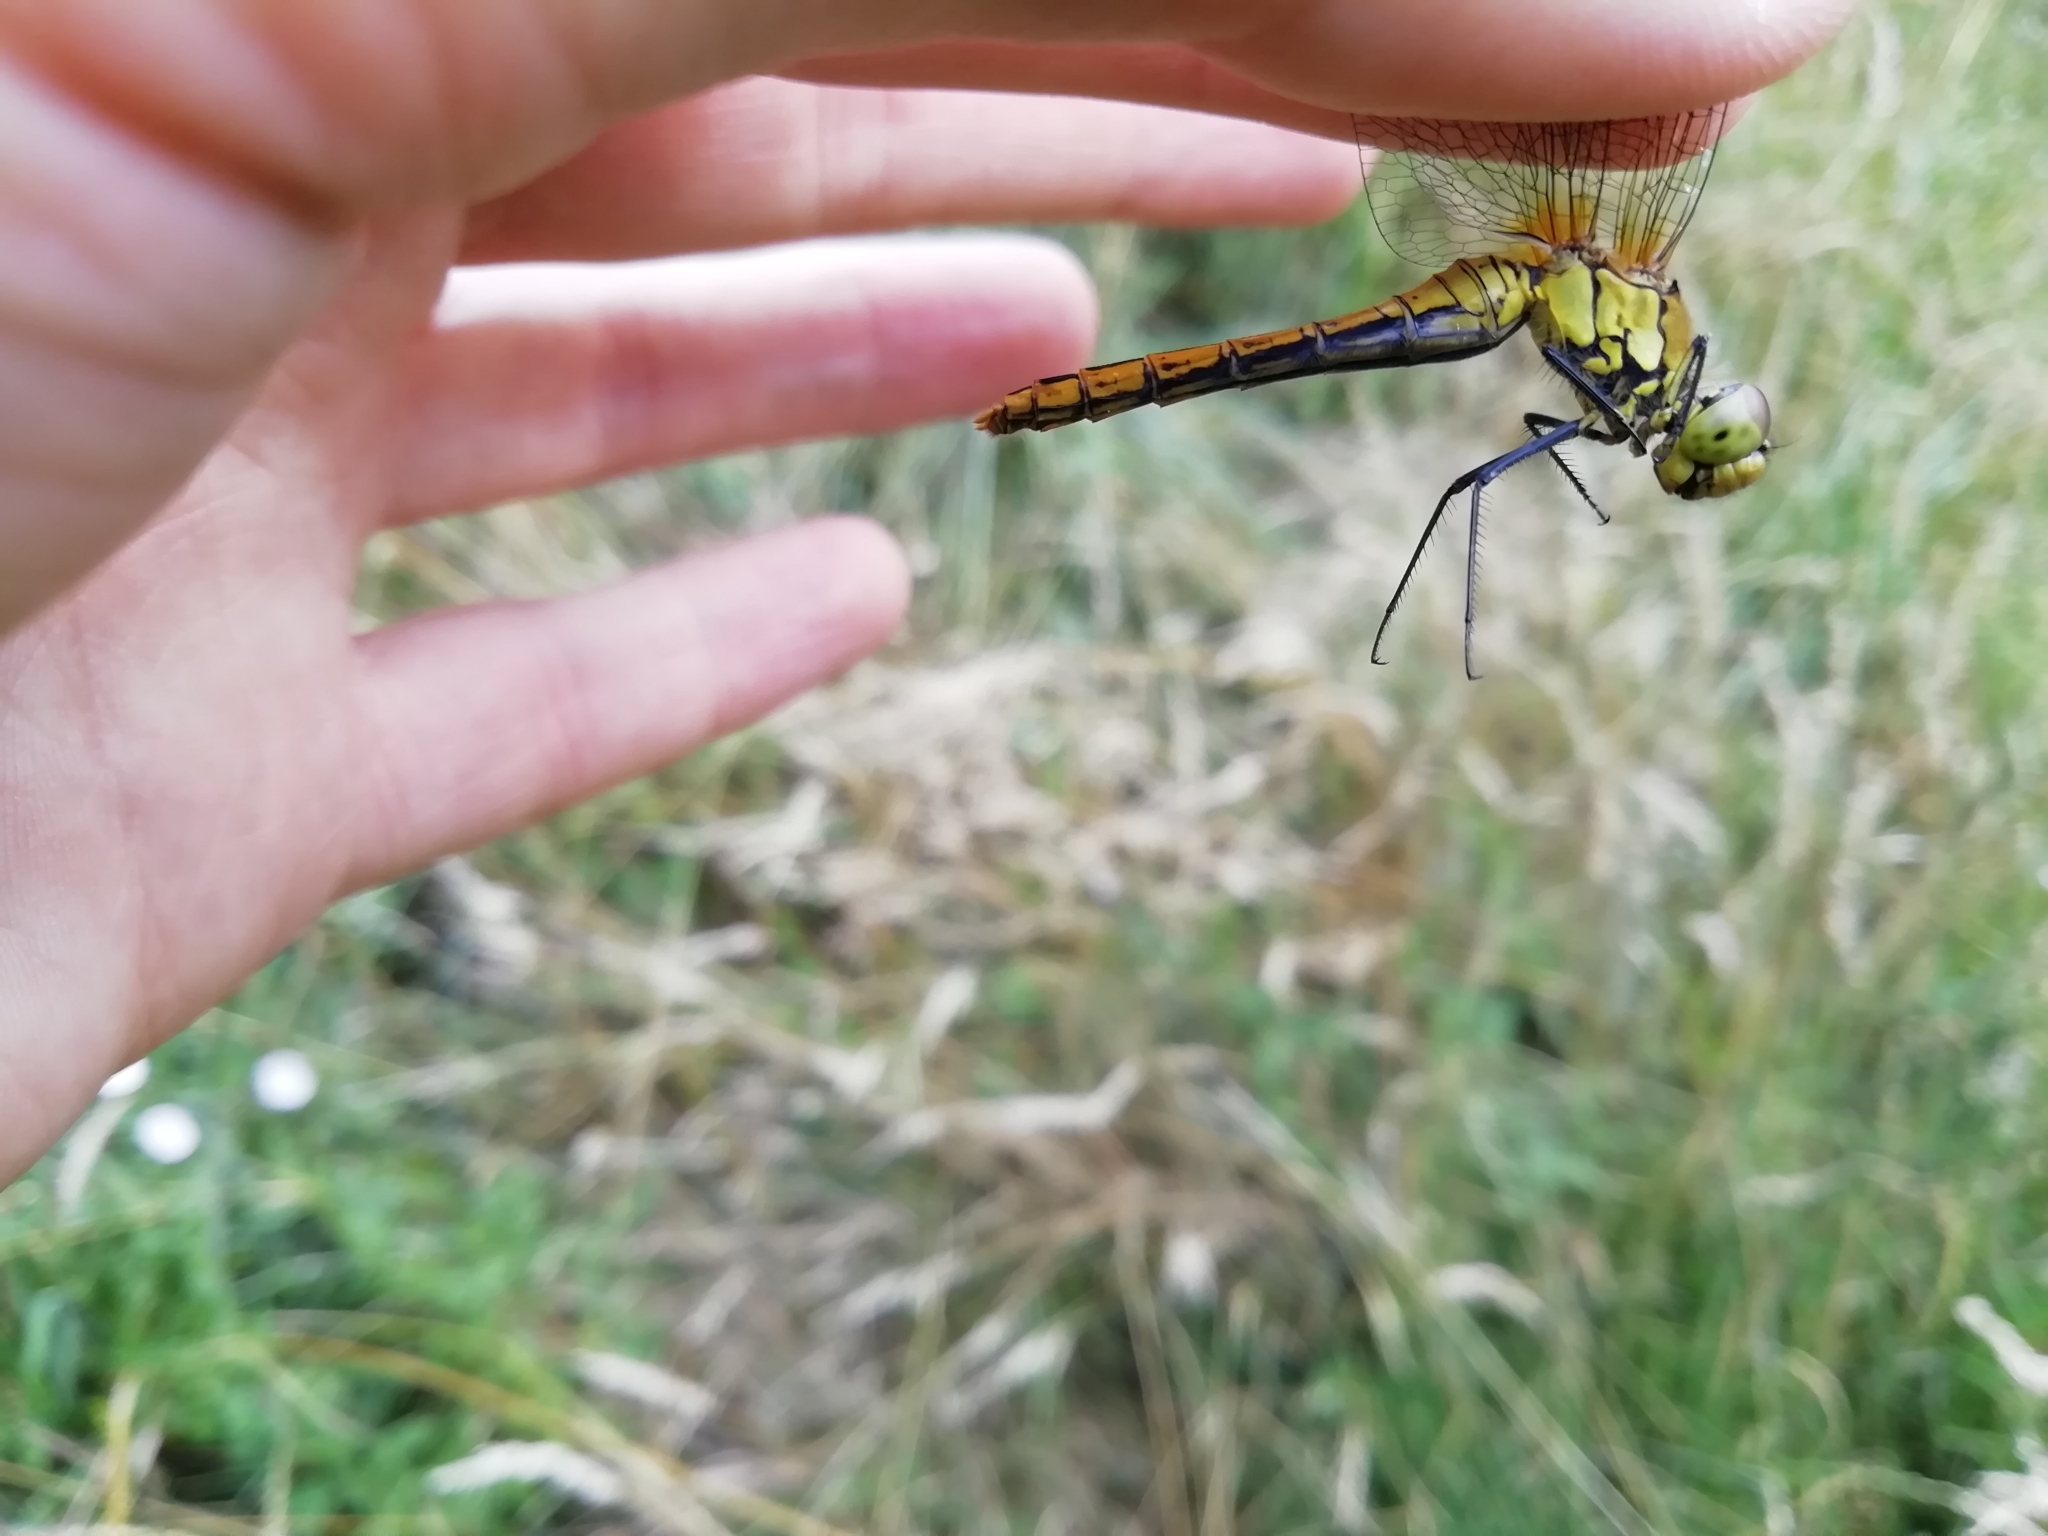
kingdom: Animalia
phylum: Arthropoda
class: Insecta
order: Odonata
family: Libellulidae
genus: Sympetrum
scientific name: Sympetrum sanguineum
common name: Ruddy darter
